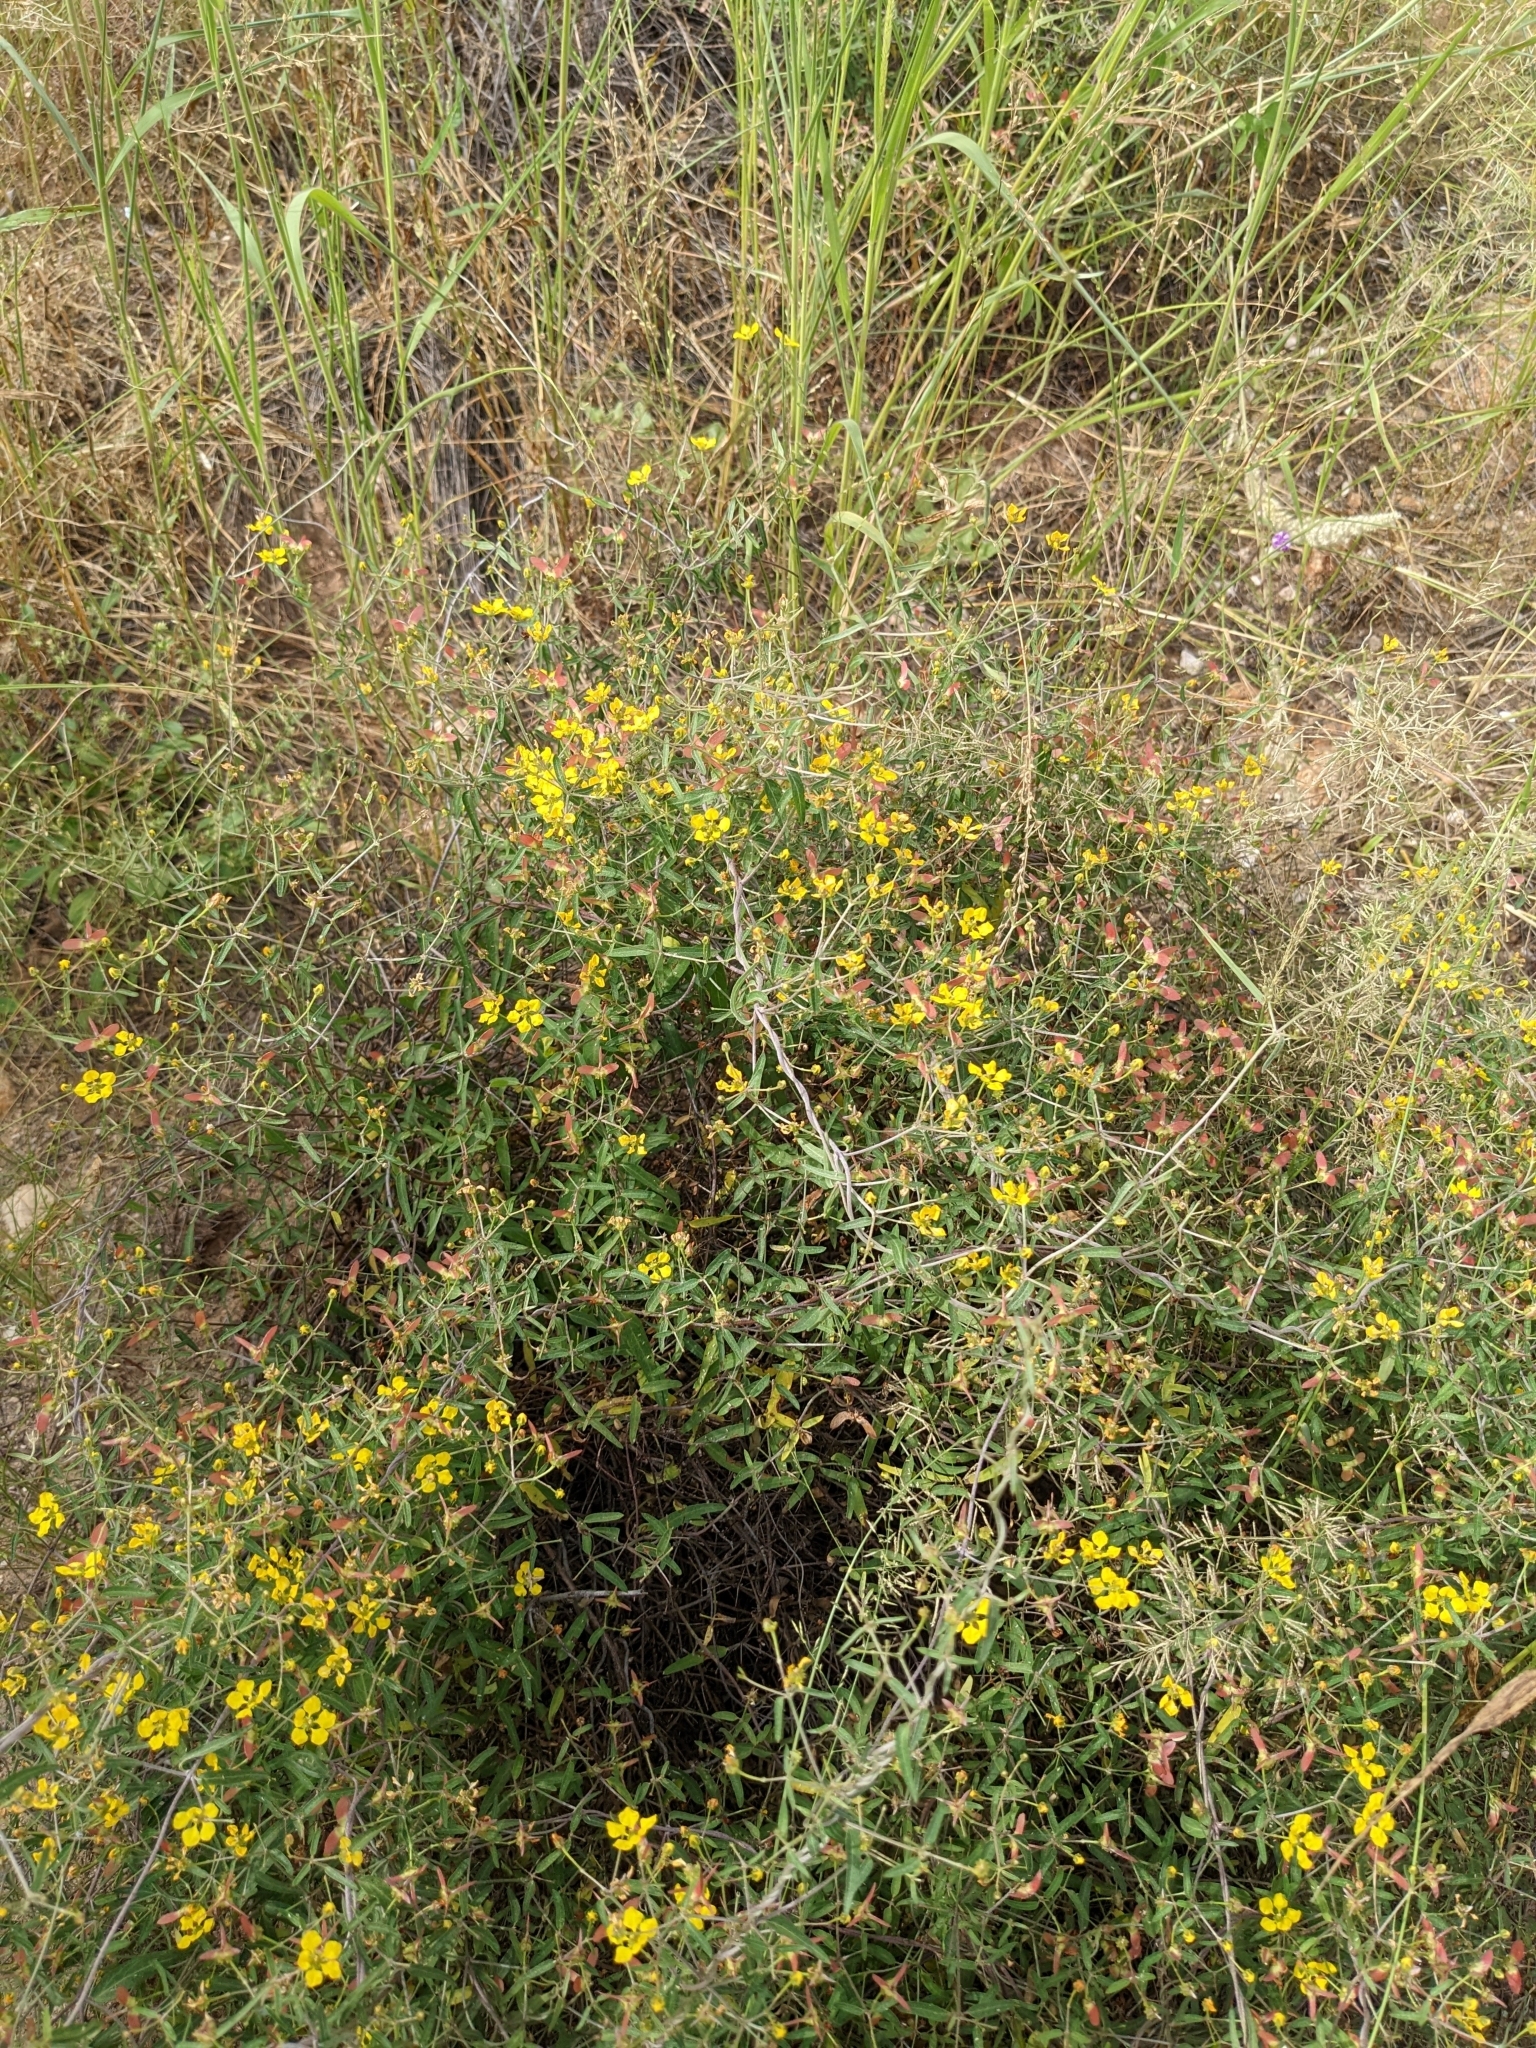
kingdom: Plantae
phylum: Tracheophyta
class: Magnoliopsida
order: Malpighiales
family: Malpighiaceae
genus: Cottsia
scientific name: Cottsia gracilis
